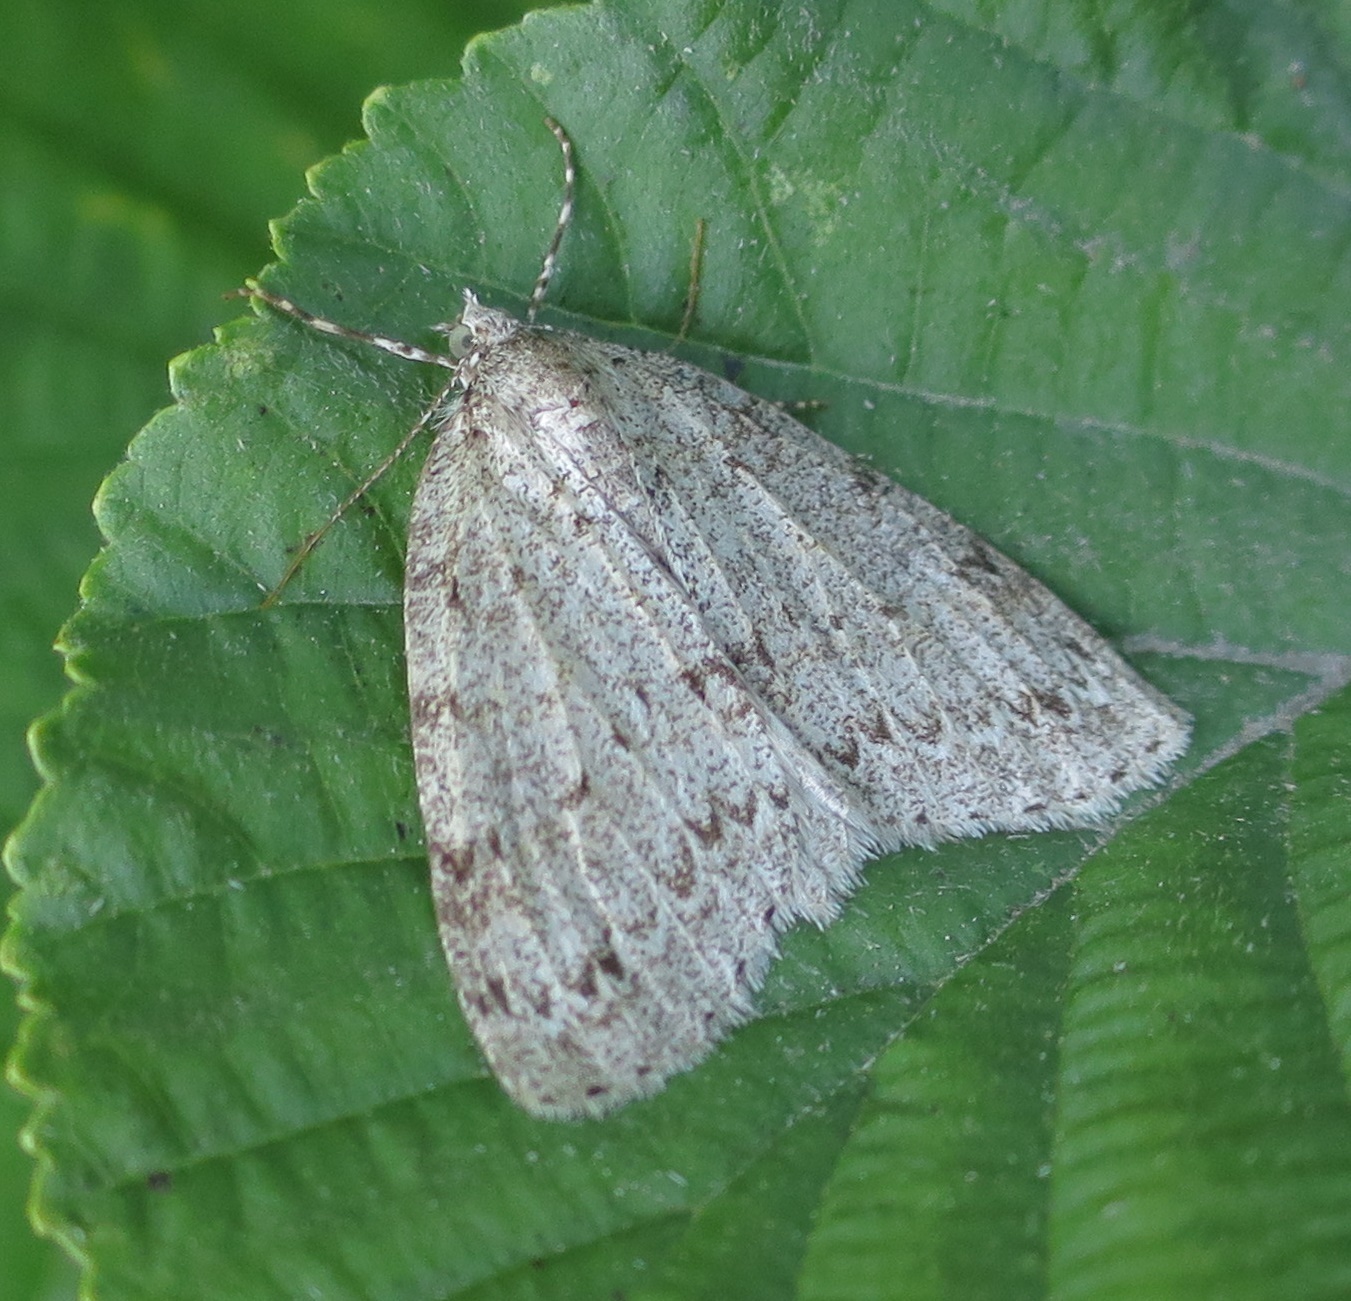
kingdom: Animalia
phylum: Arthropoda
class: Insecta
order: Lepidoptera
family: Geometridae
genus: Pseudocoremia
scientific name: Pseudocoremia fenerata
